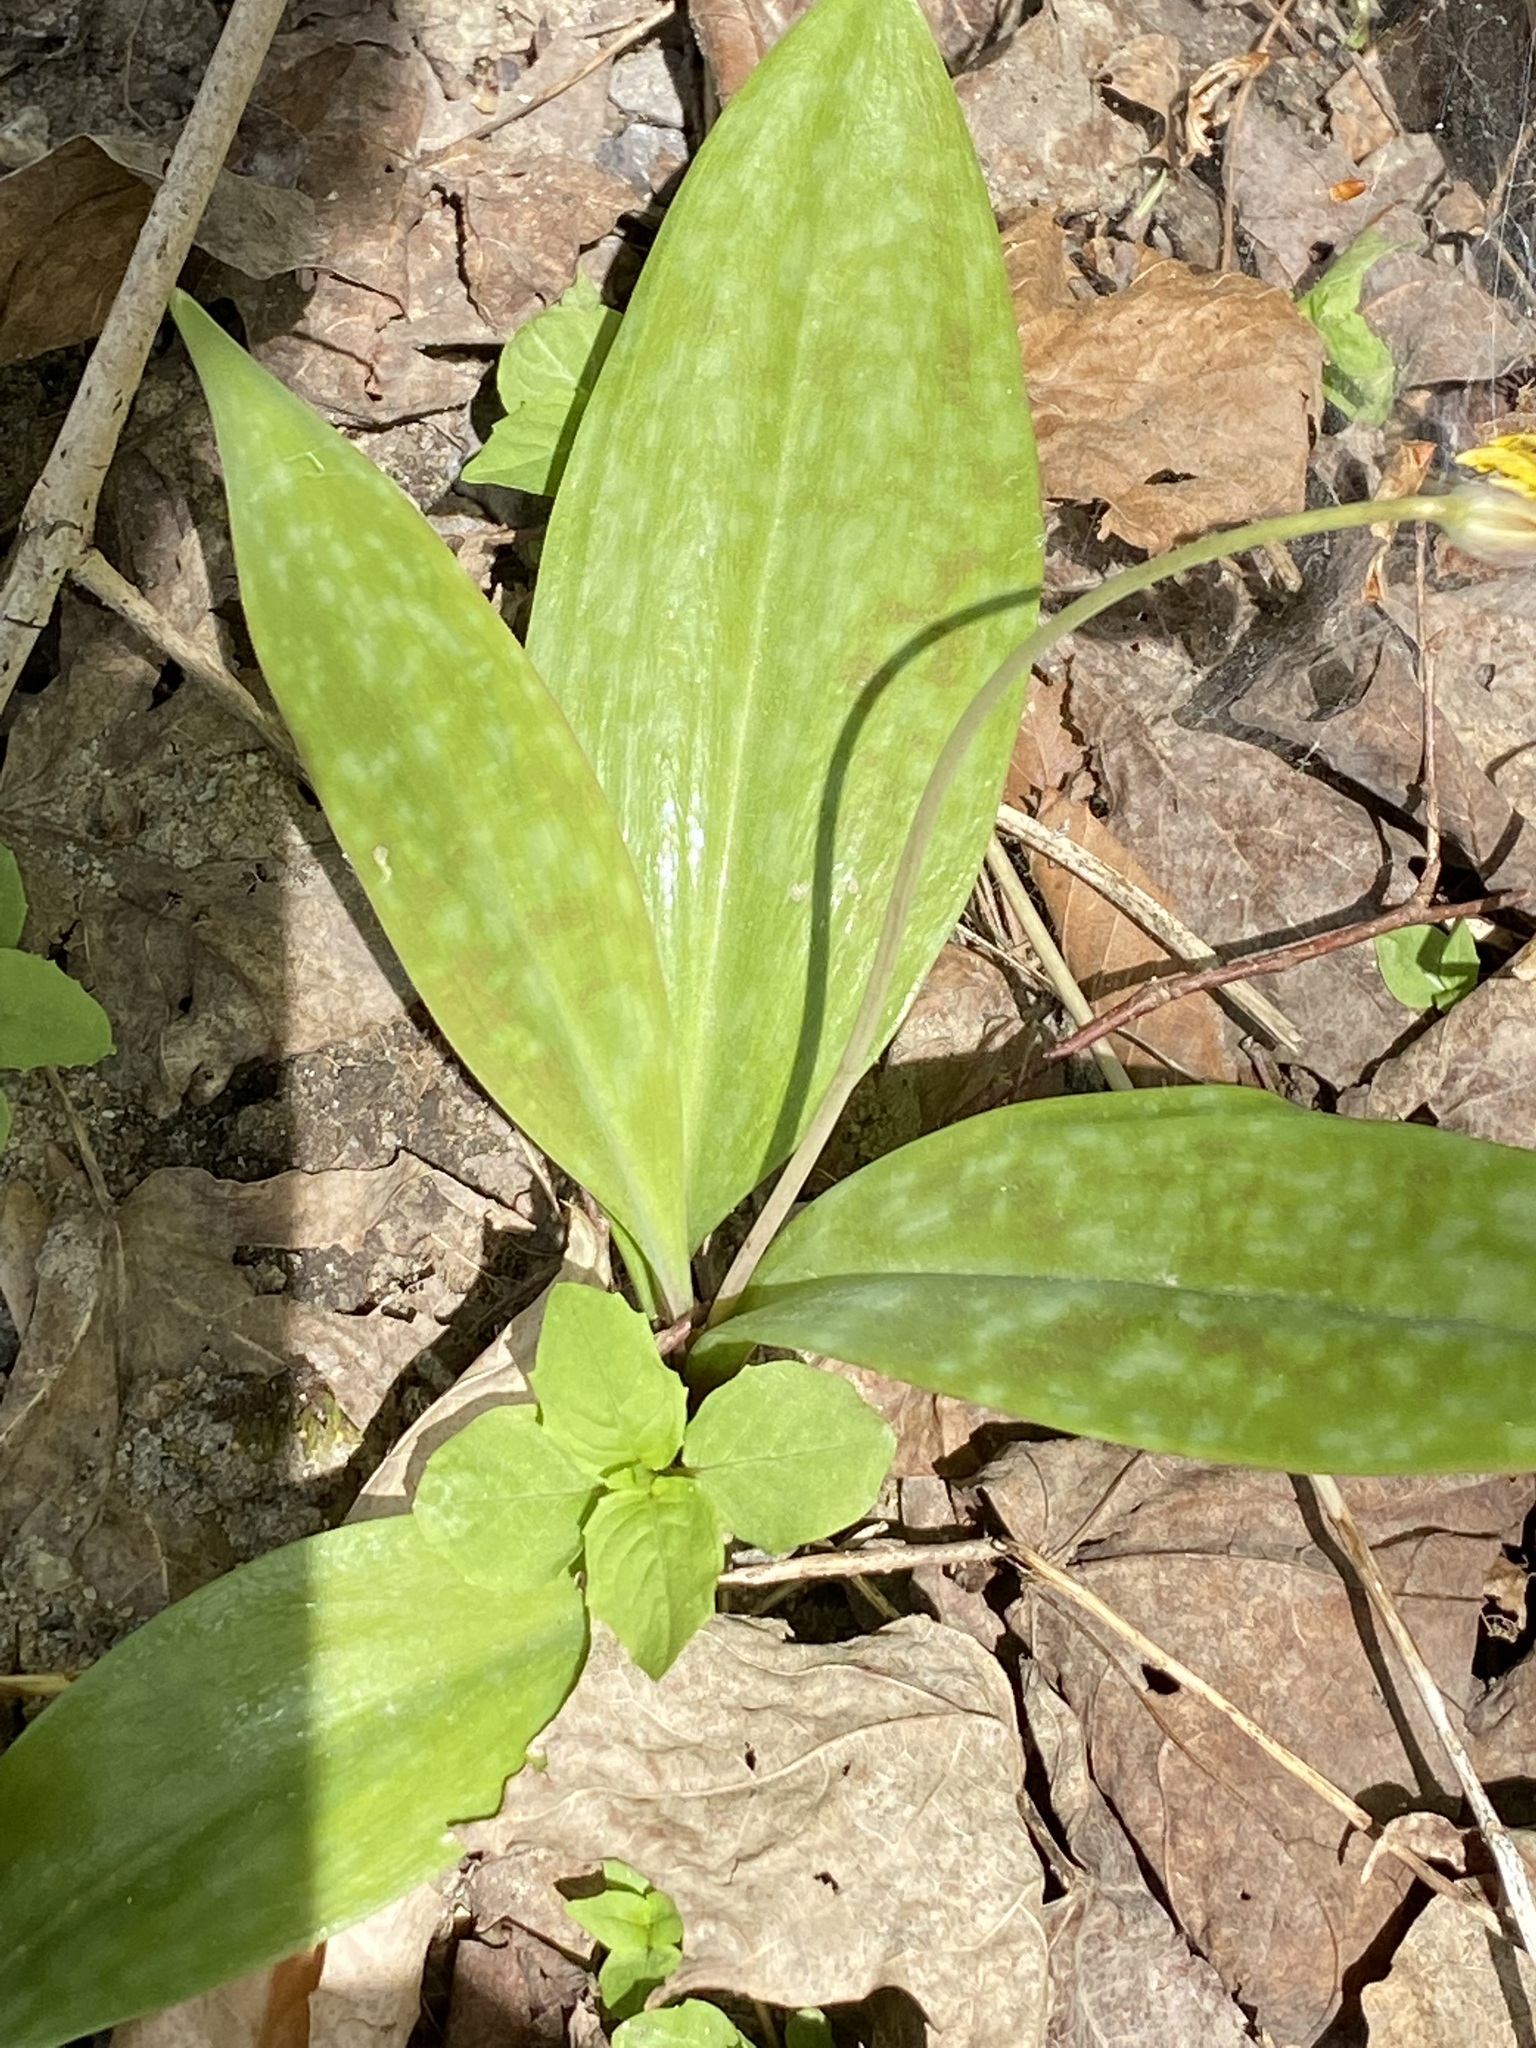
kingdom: Plantae
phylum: Tracheophyta
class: Liliopsida
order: Liliales
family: Liliaceae
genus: Erythronium
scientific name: Erythronium americanum
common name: Yellow adder's-tongue
